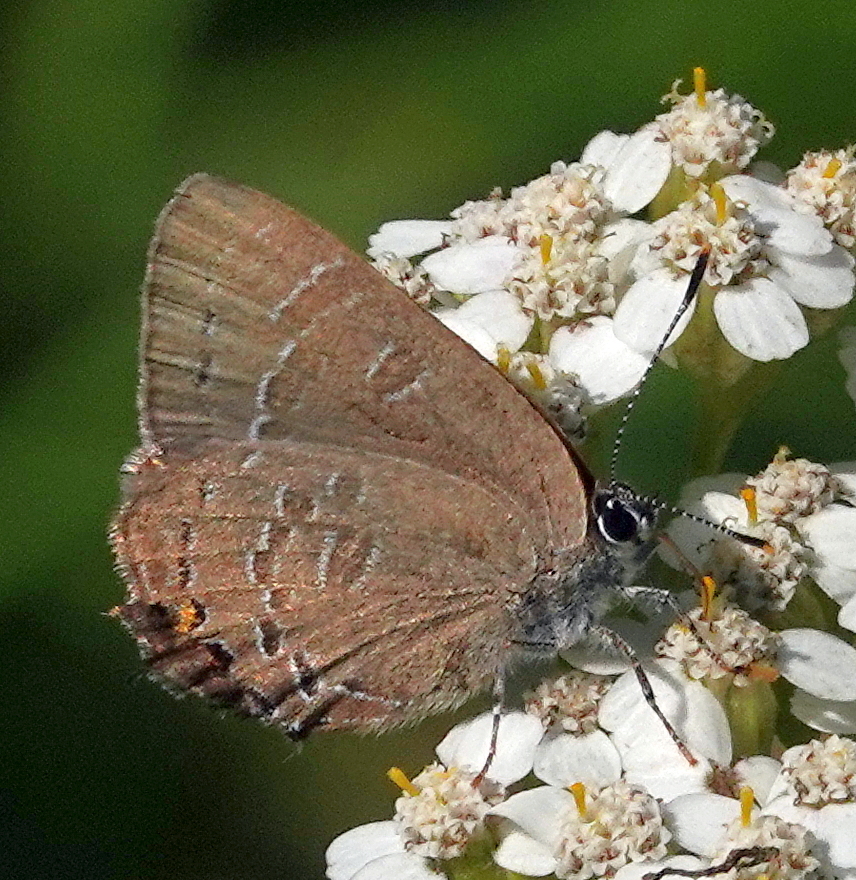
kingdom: Animalia
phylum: Arthropoda
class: Insecta
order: Lepidoptera
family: Lycaenidae
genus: Satyrium
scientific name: Satyrium calanus
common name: Banded hairstreak
